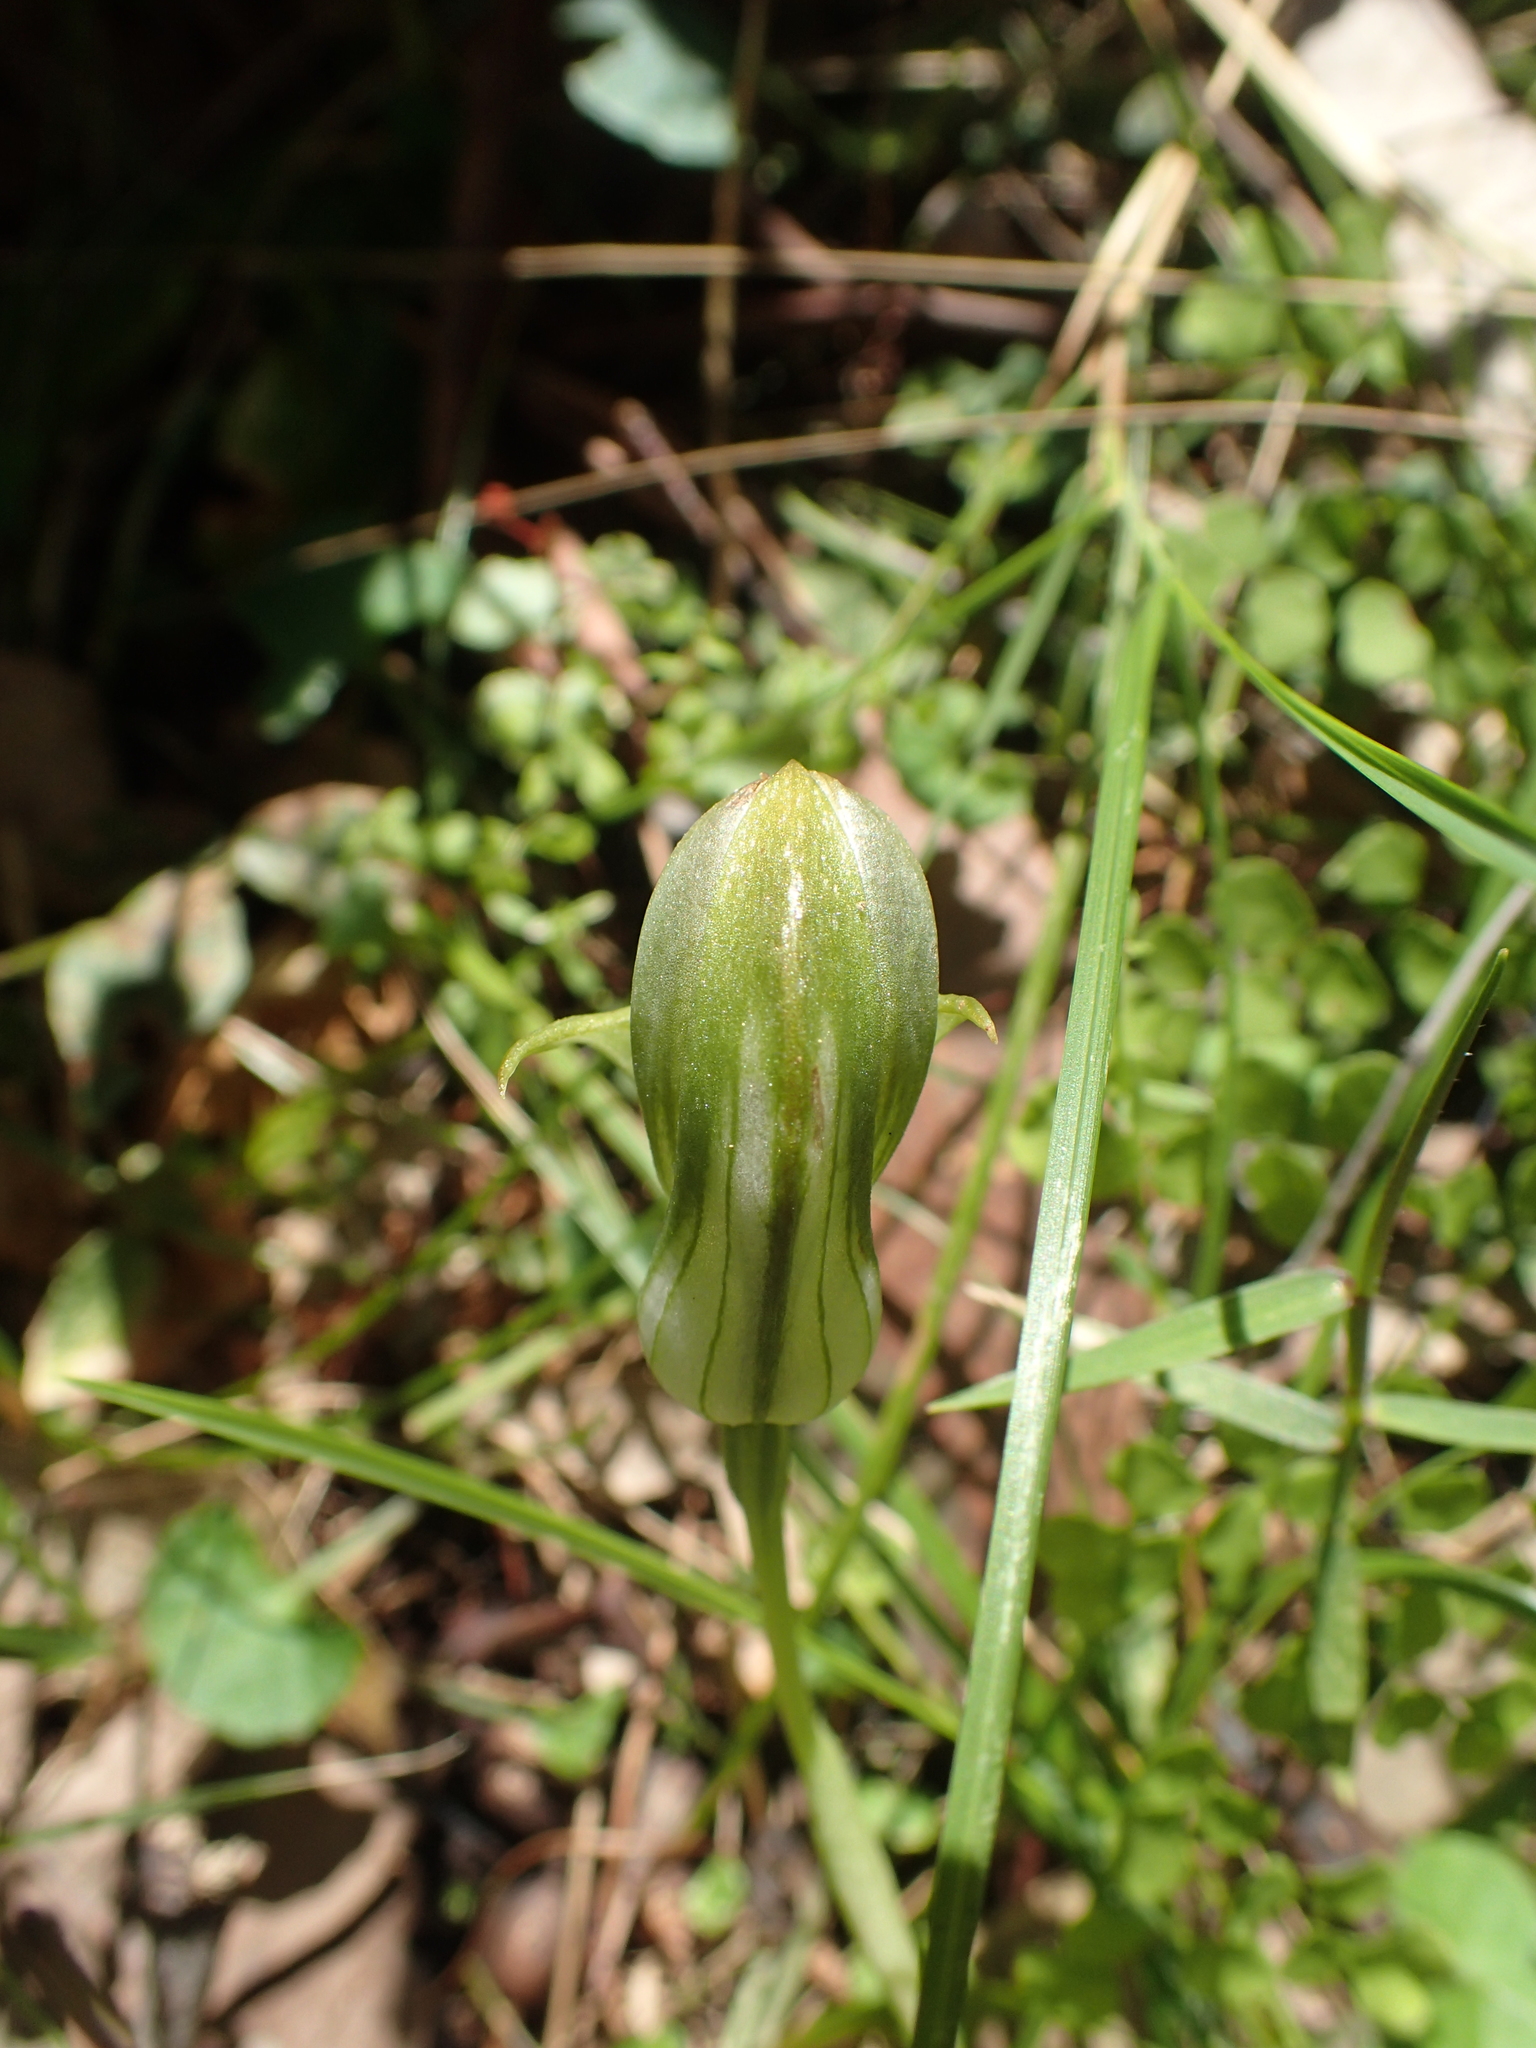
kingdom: Plantae
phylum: Tracheophyta
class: Liliopsida
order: Asparagales
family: Orchidaceae
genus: Pterostylis
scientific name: Pterostylis curta
